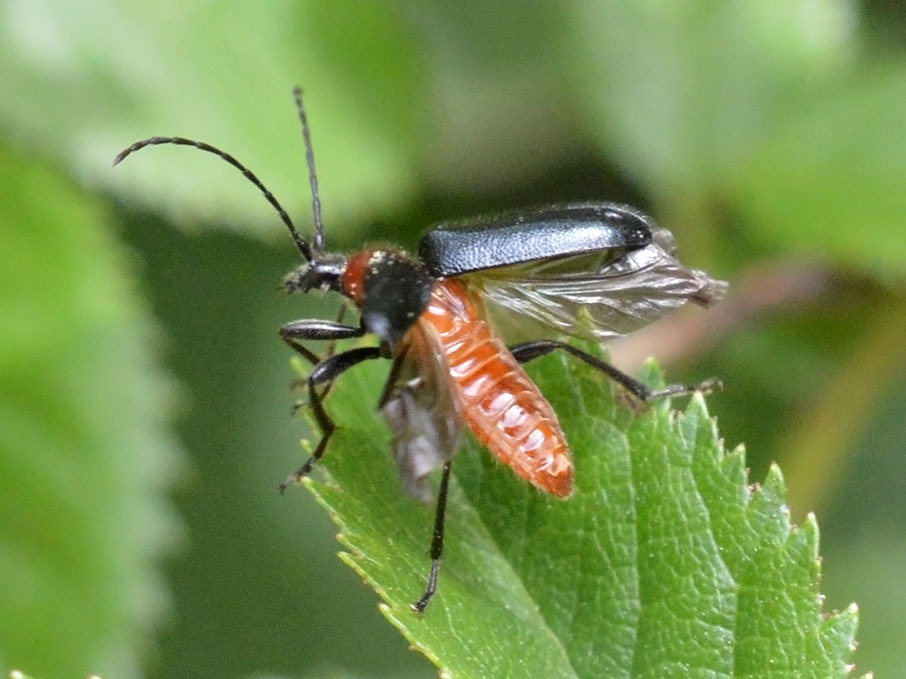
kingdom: Animalia
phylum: Arthropoda
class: Insecta
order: Coleoptera
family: Cerambycidae
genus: Dinoptera
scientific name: Dinoptera collaris
